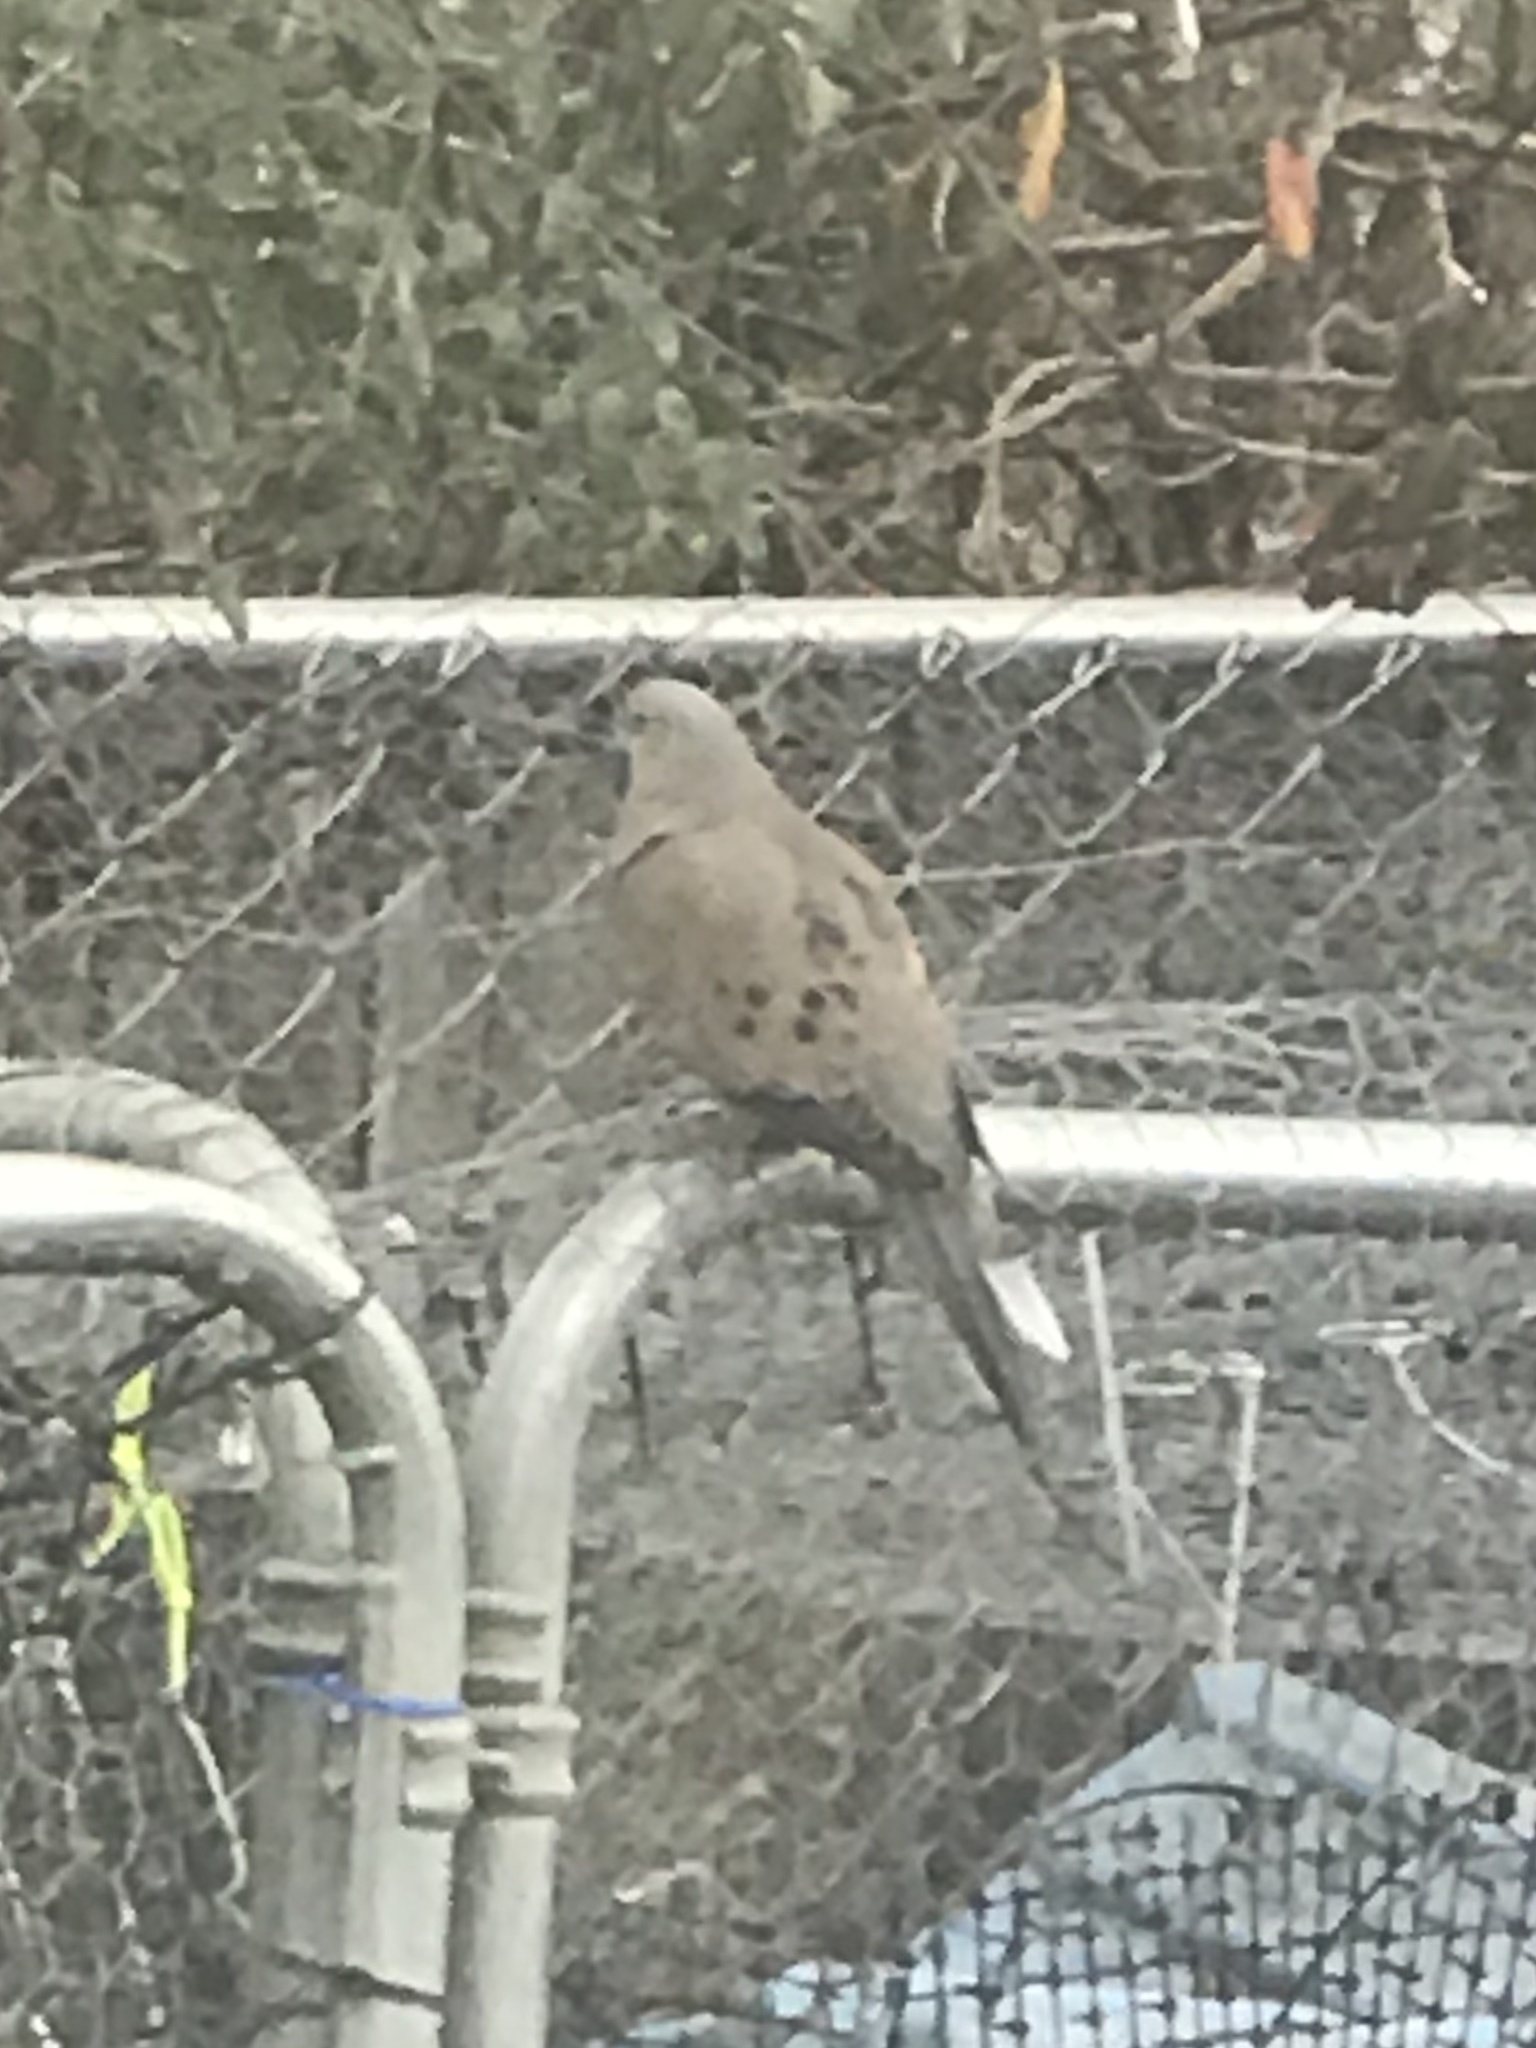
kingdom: Animalia
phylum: Chordata
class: Aves
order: Columbiformes
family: Columbidae
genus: Zenaida
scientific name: Zenaida macroura
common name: Mourning dove
